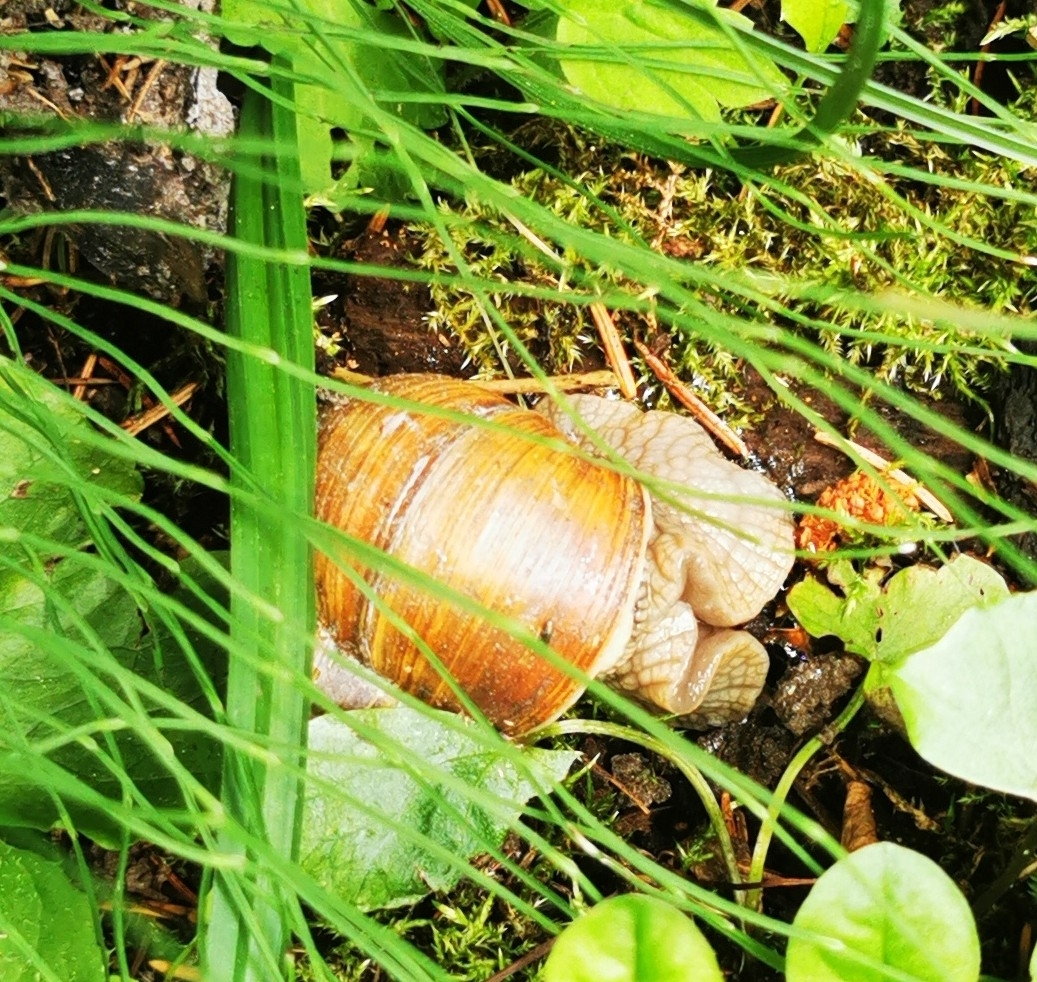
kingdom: Animalia
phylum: Mollusca
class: Gastropoda
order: Stylommatophora
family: Helicidae
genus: Helix
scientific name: Helix pomatia
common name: Roman snail
